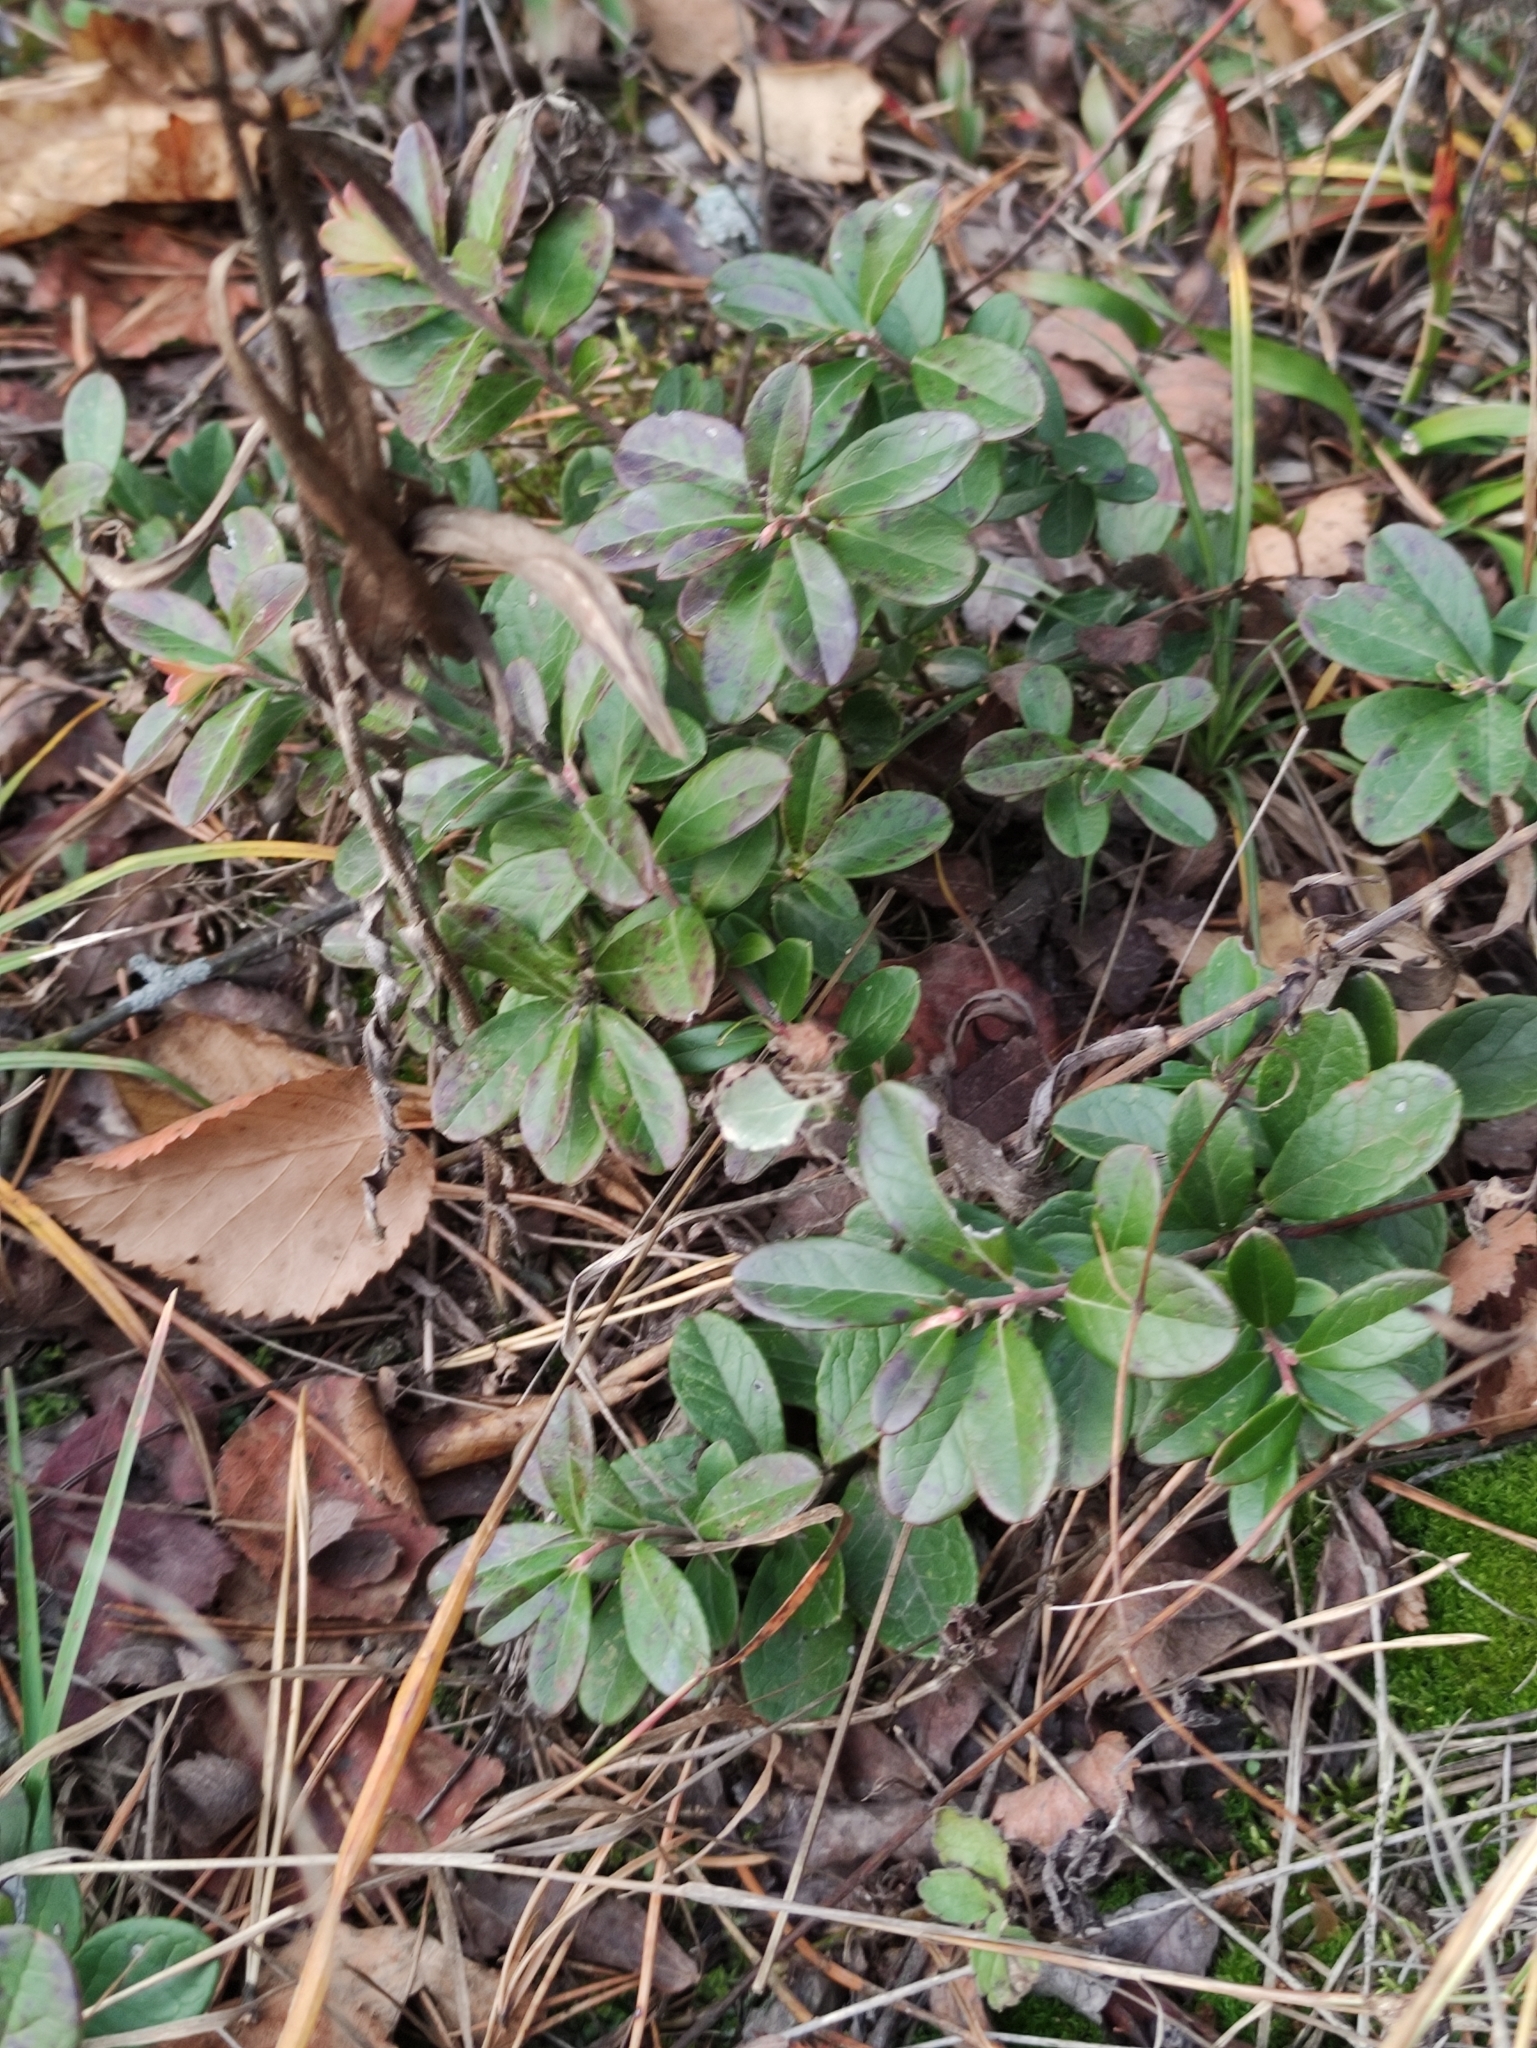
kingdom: Plantae
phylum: Tracheophyta
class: Magnoliopsida
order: Ericales
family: Ericaceae
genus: Vaccinium
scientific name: Vaccinium vitis-idaea
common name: Cowberry
